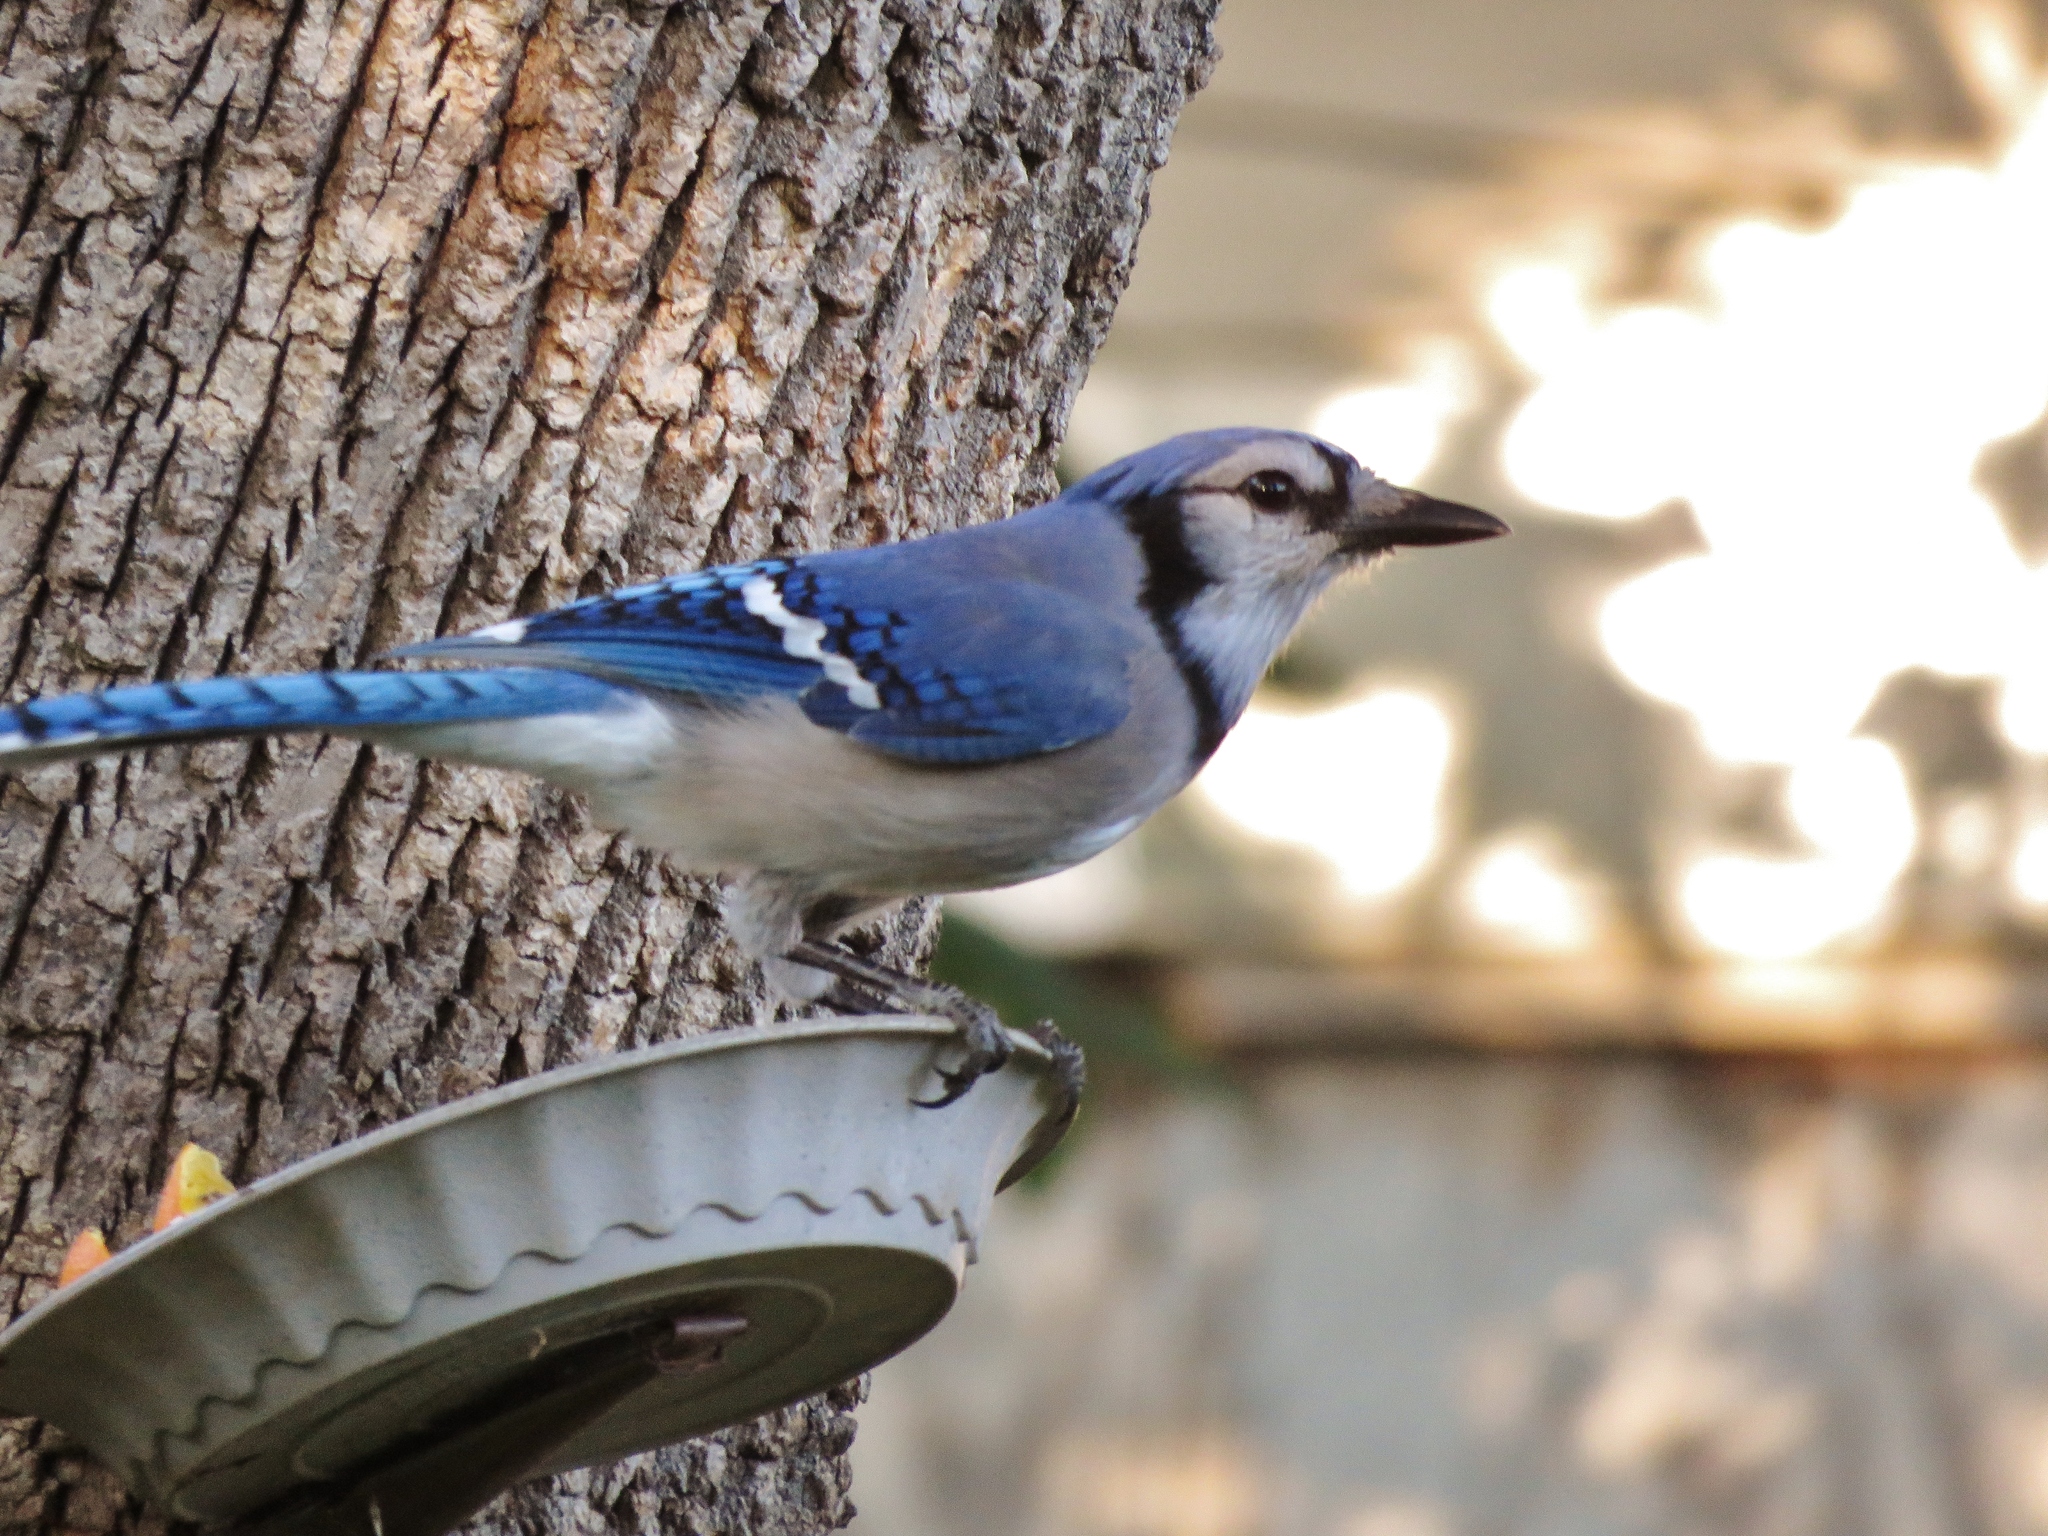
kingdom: Animalia
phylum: Chordata
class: Aves
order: Passeriformes
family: Corvidae
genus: Cyanocitta
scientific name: Cyanocitta cristata
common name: Blue jay
